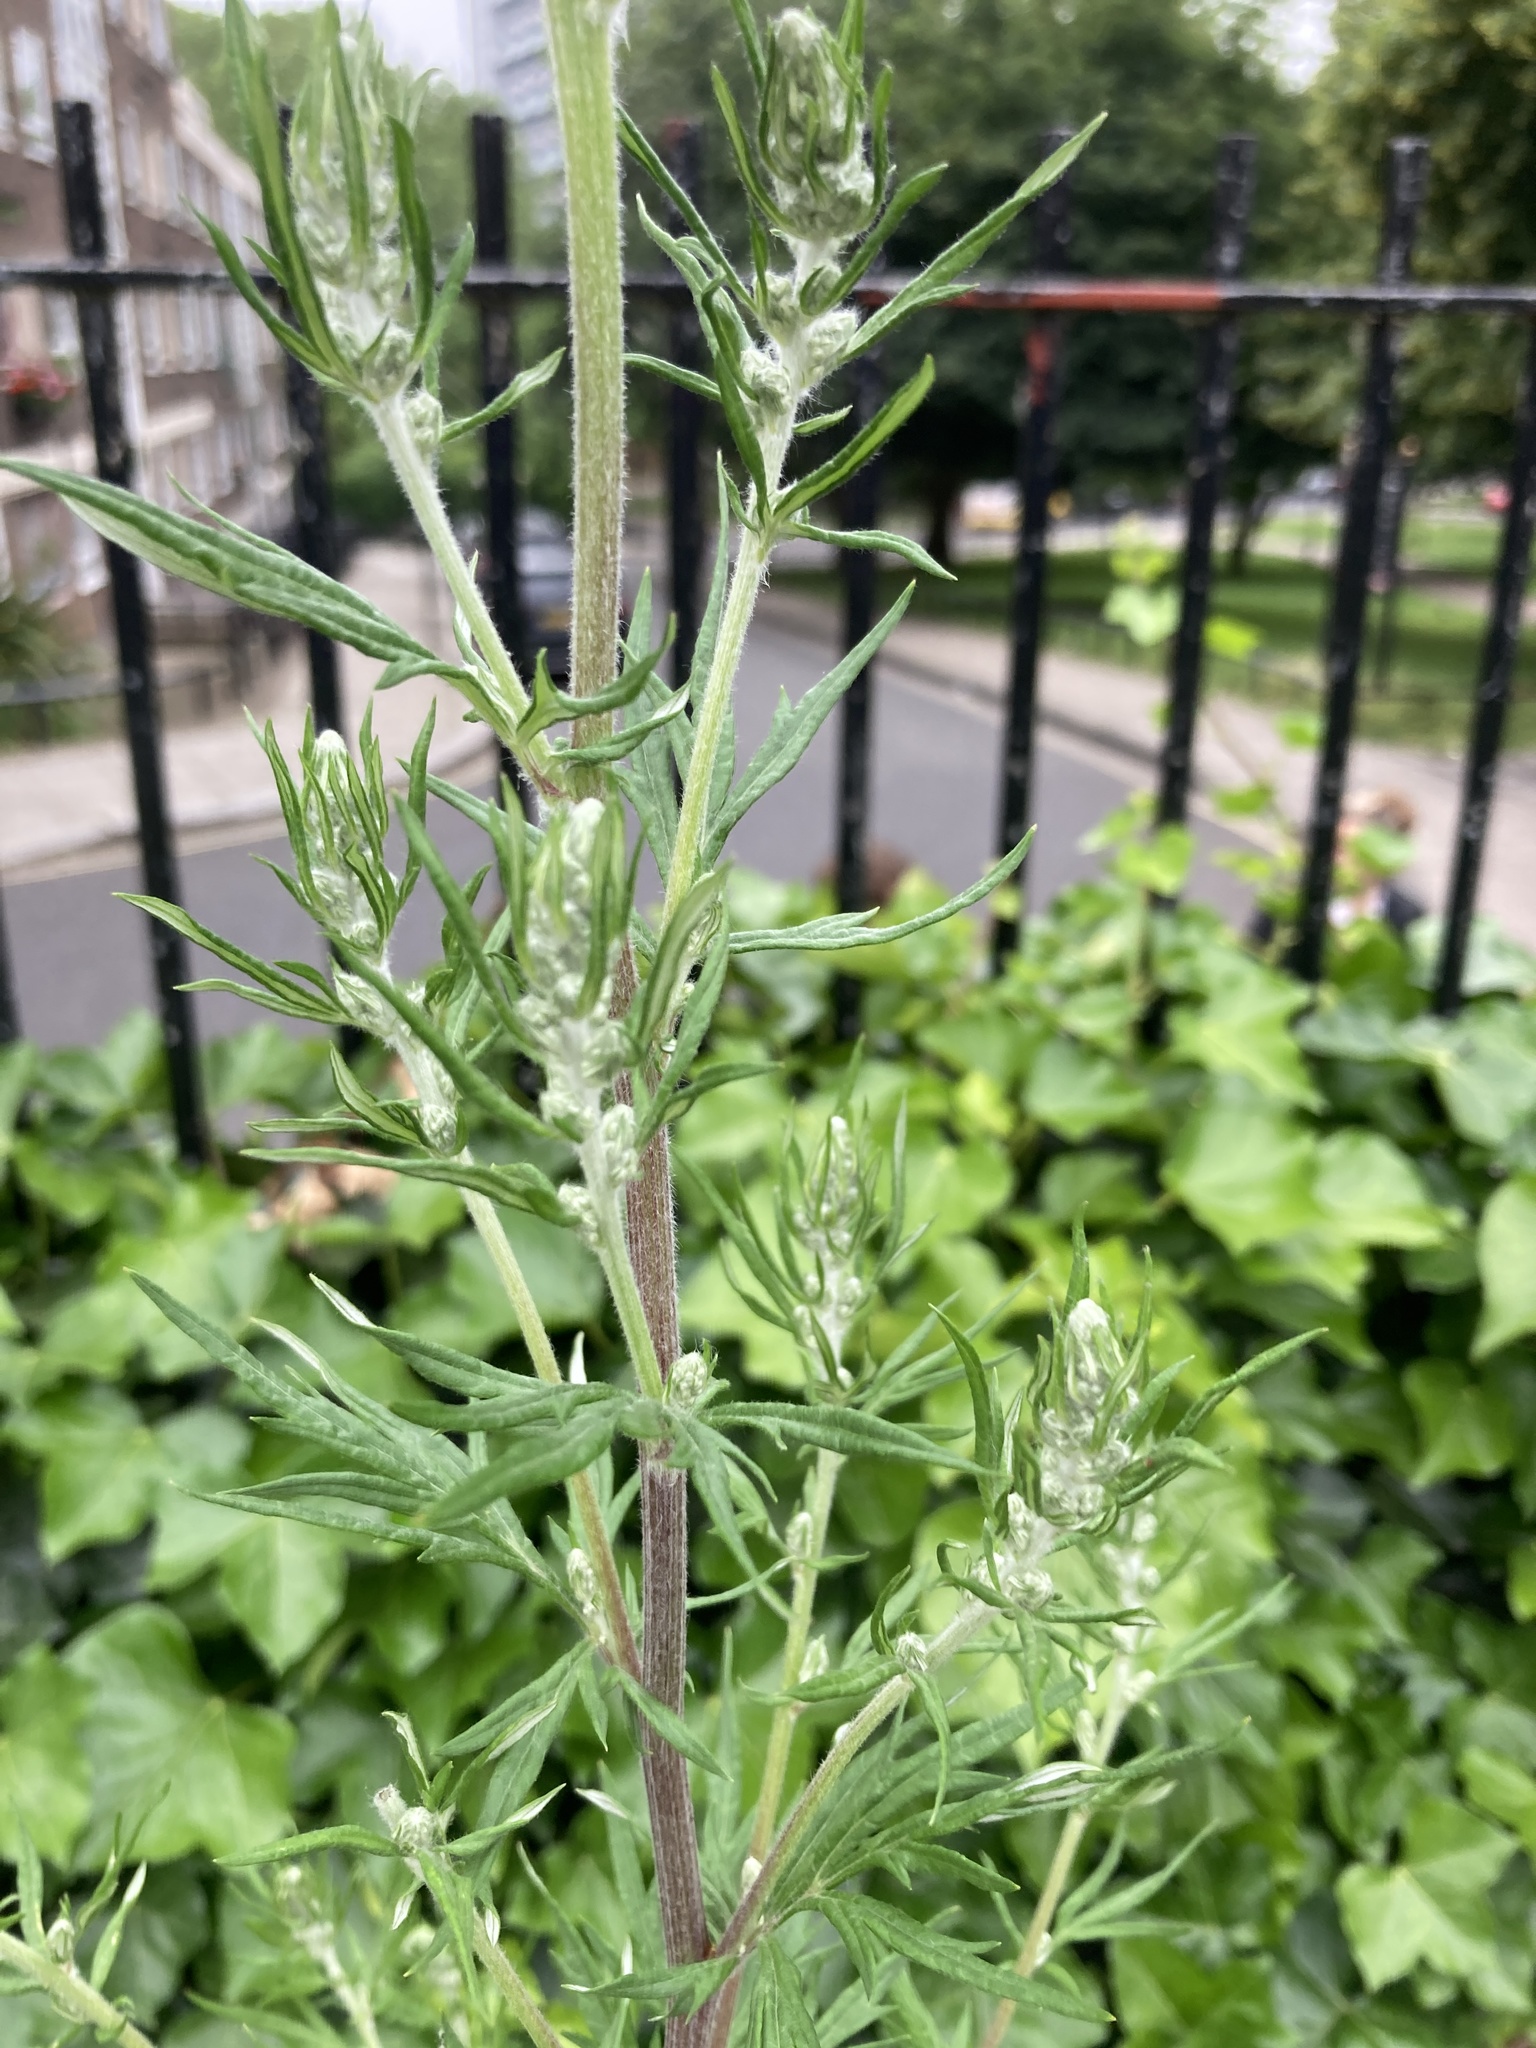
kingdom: Plantae
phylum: Tracheophyta
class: Magnoliopsida
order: Asterales
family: Asteraceae
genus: Artemisia
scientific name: Artemisia vulgaris
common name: Mugwort
